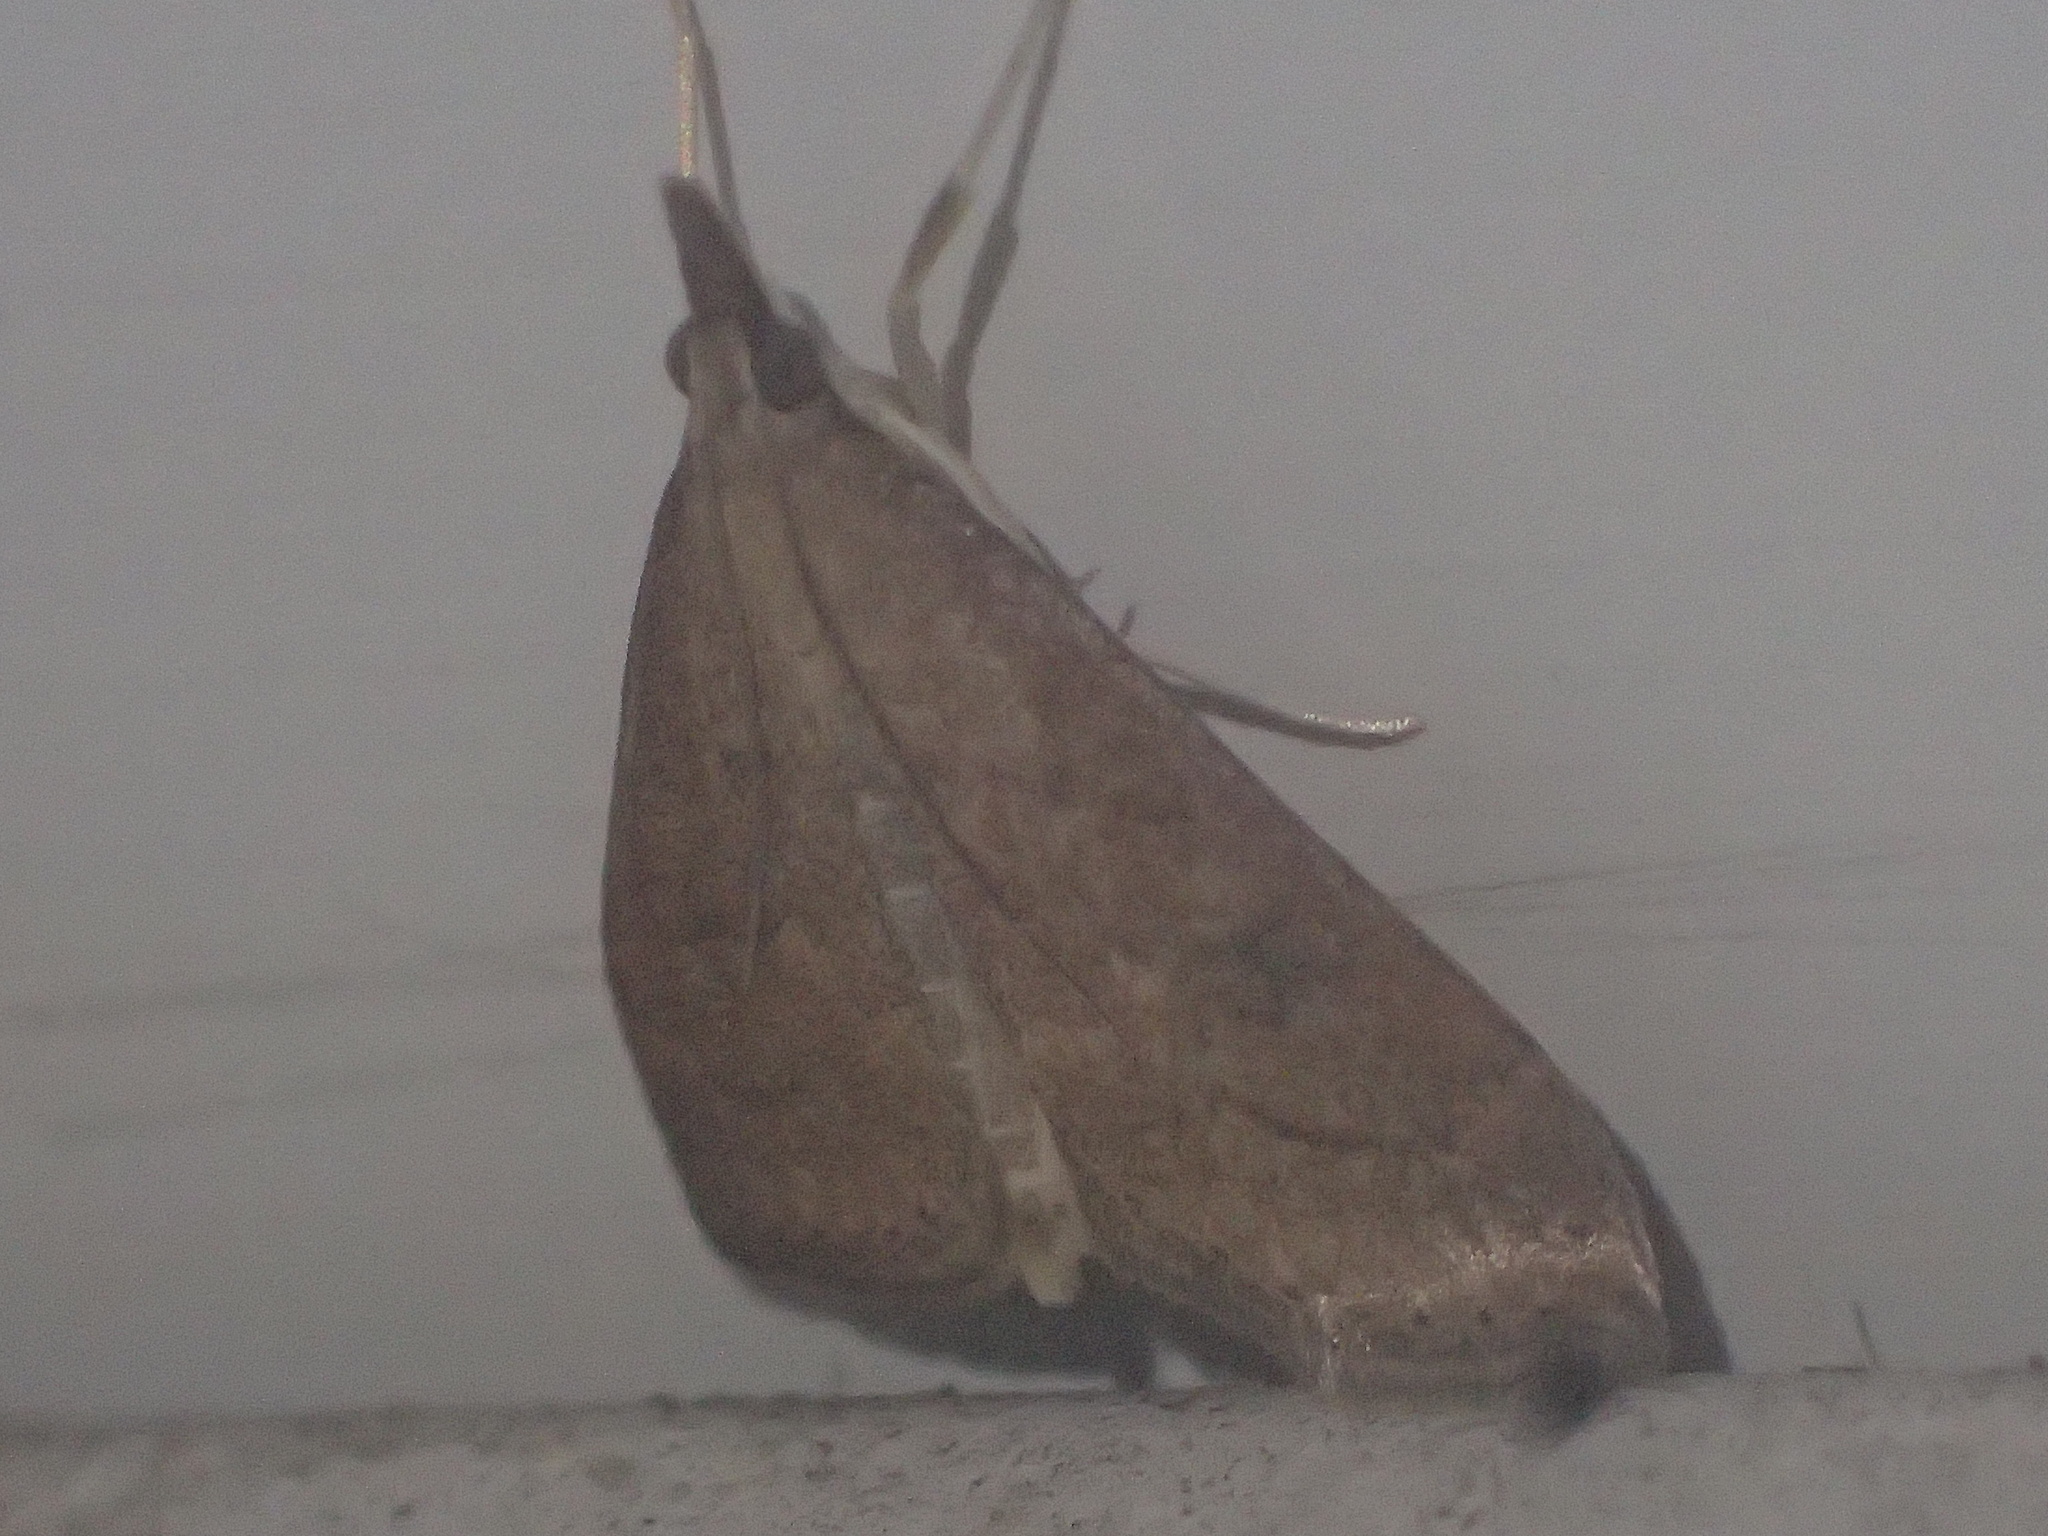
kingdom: Animalia
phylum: Arthropoda
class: Insecta
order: Lepidoptera
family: Crambidae
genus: Udea
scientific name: Udea rubigalis
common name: Celery leaftier moth
